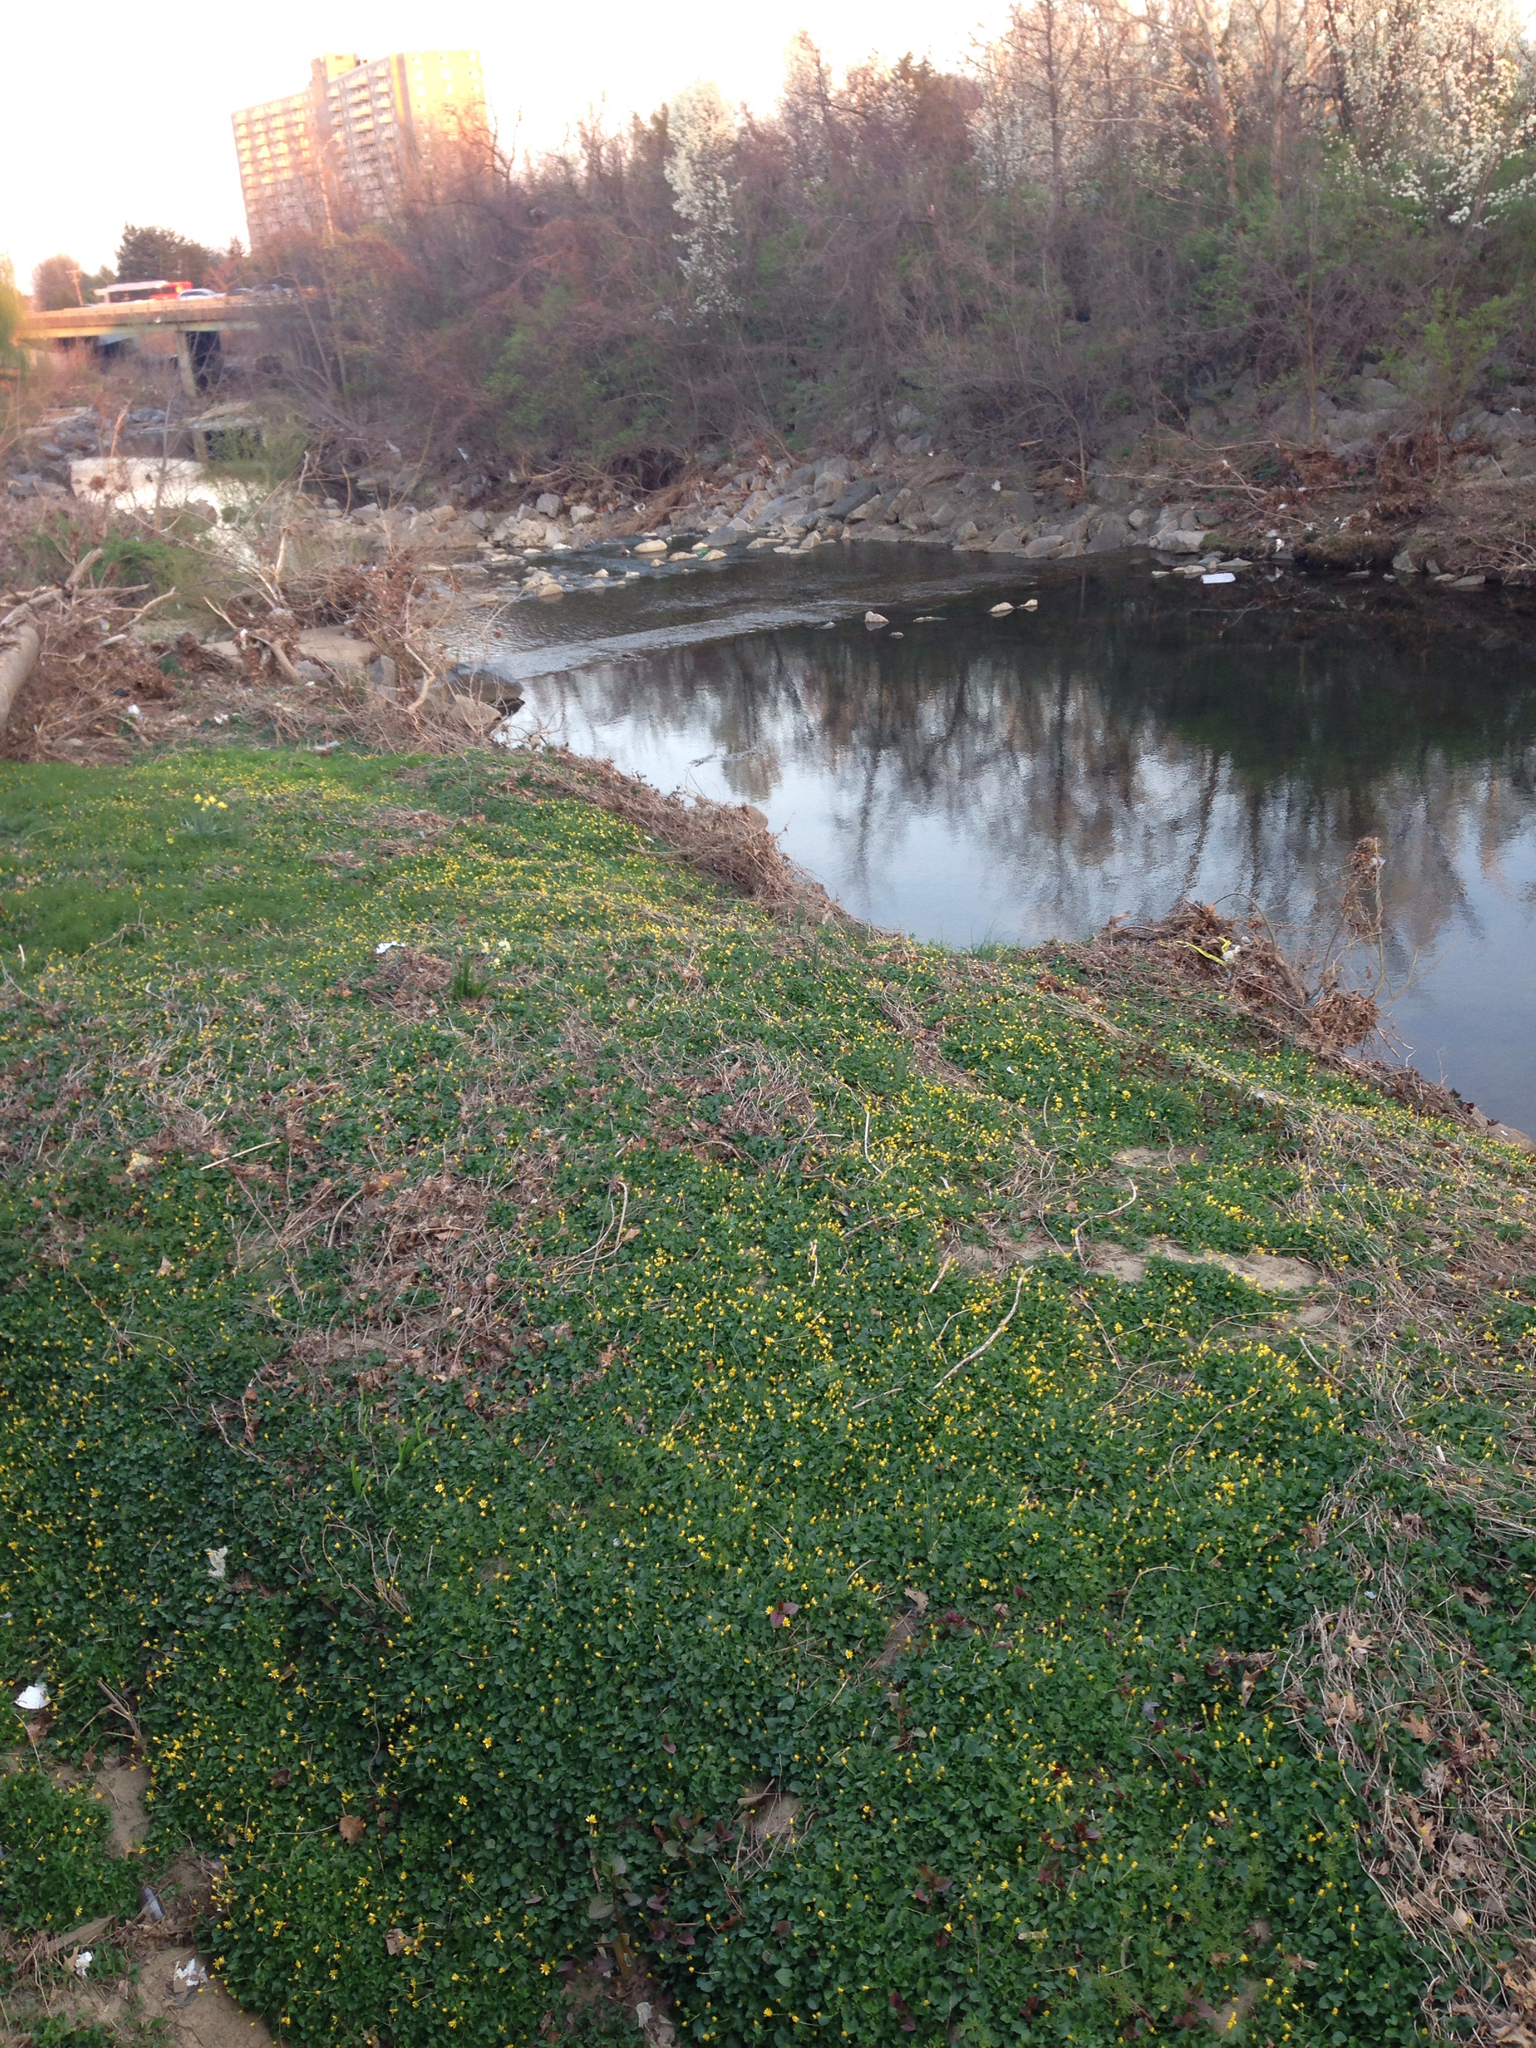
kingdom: Plantae
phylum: Tracheophyta
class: Magnoliopsida
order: Ranunculales
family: Ranunculaceae
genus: Ficaria
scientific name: Ficaria verna
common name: Lesser celandine
